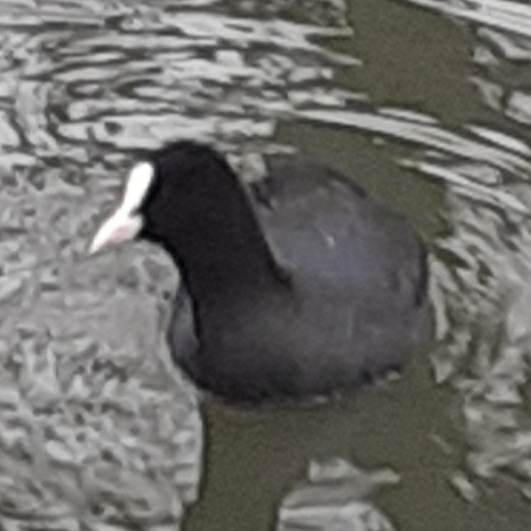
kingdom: Animalia
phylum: Chordata
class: Aves
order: Gruiformes
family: Rallidae
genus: Fulica
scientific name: Fulica atra
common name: Eurasian coot
